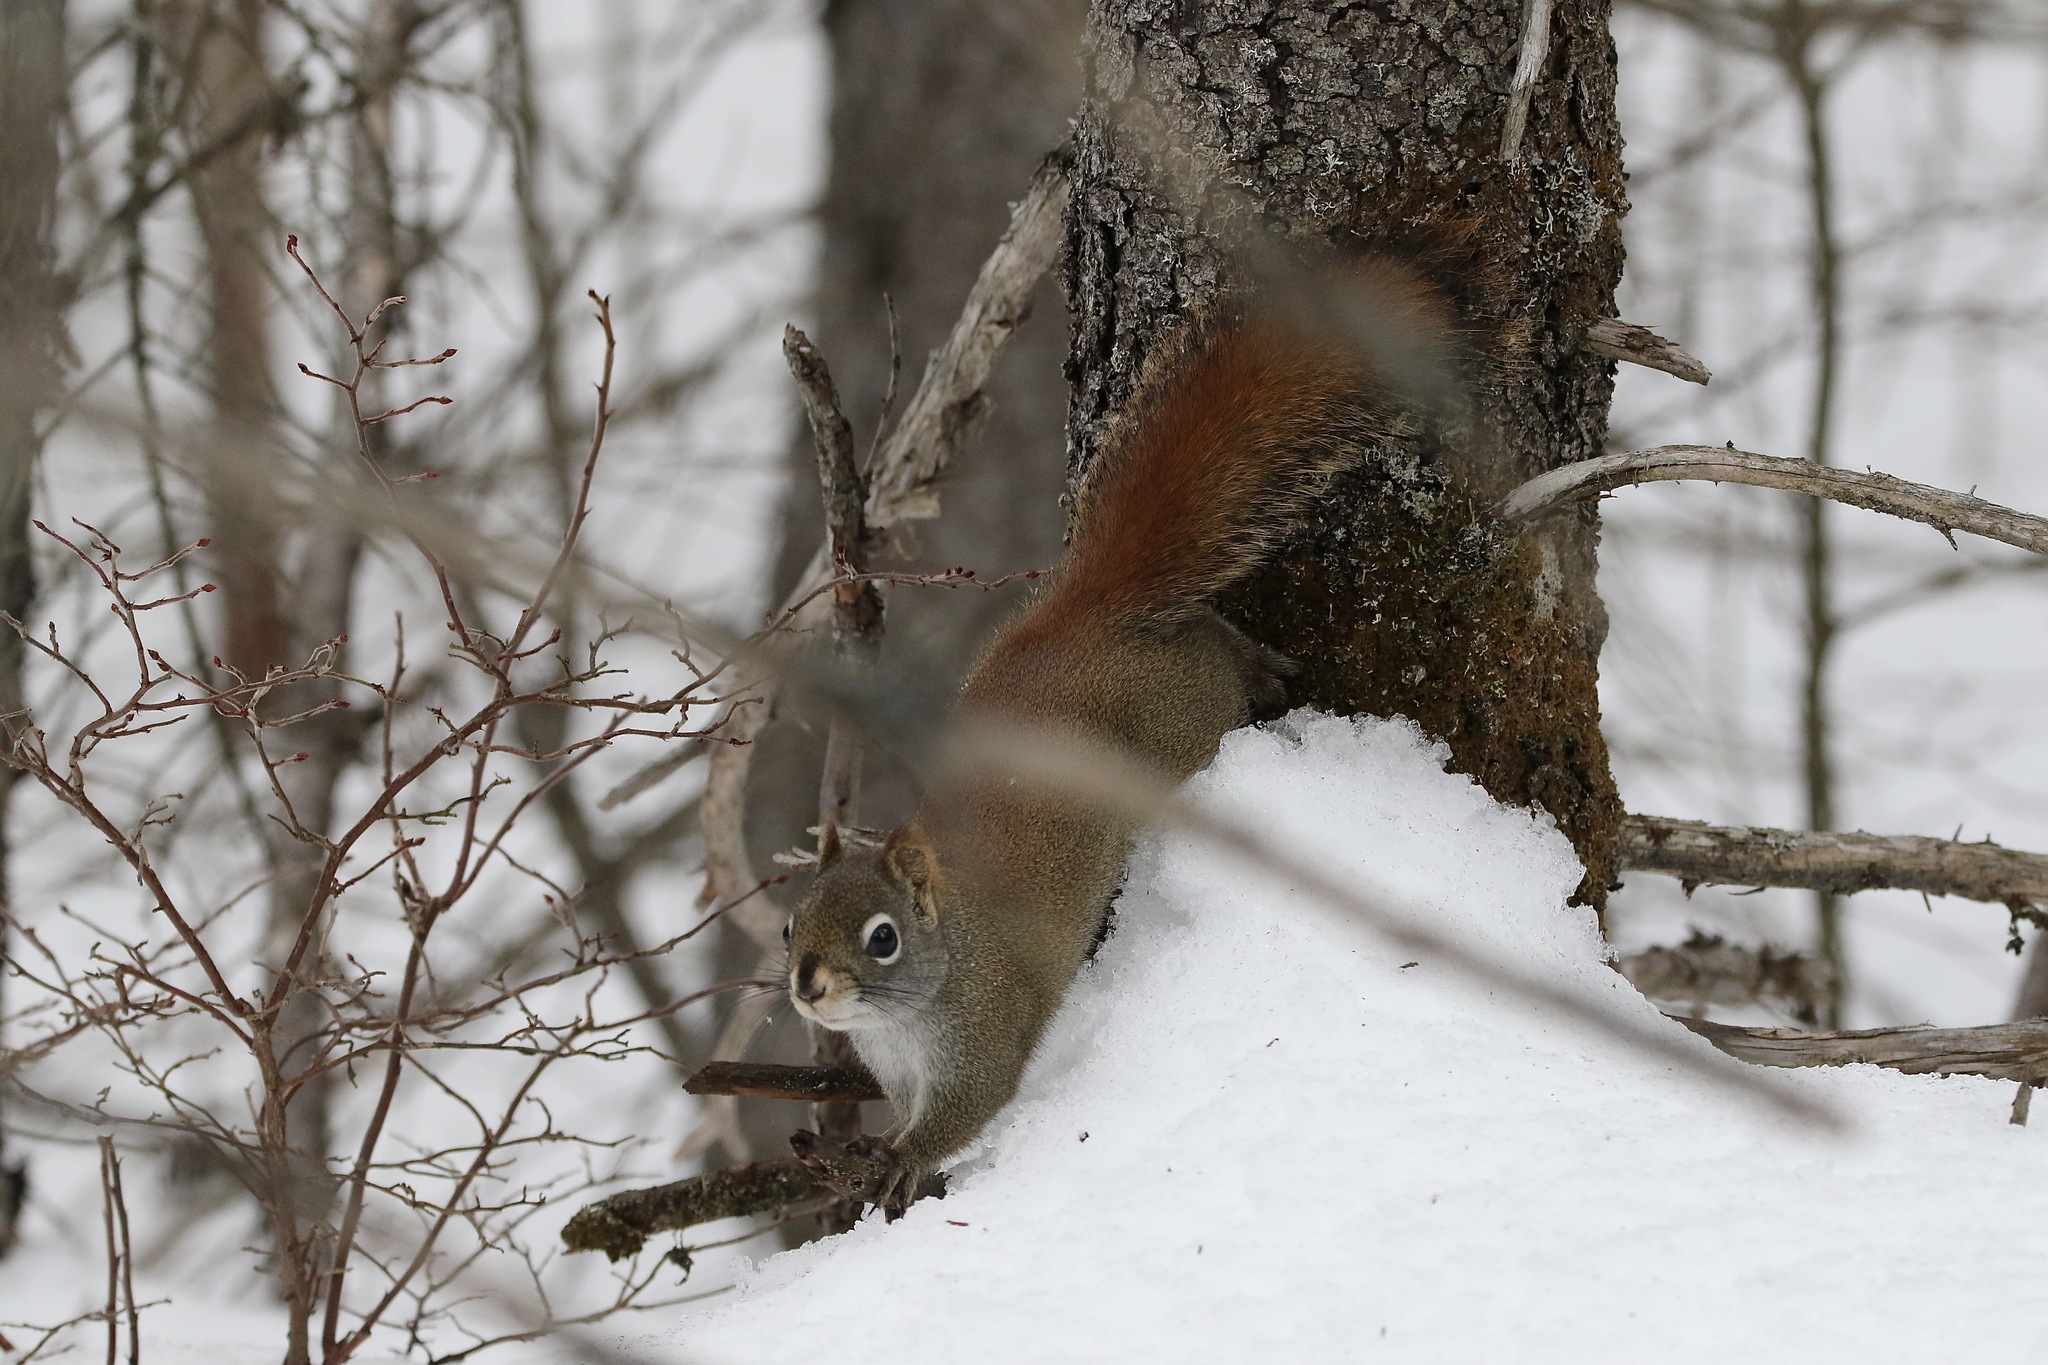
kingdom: Animalia
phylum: Chordata
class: Mammalia
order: Rodentia
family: Sciuridae
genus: Tamiasciurus
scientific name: Tamiasciurus hudsonicus
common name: Red squirrel
